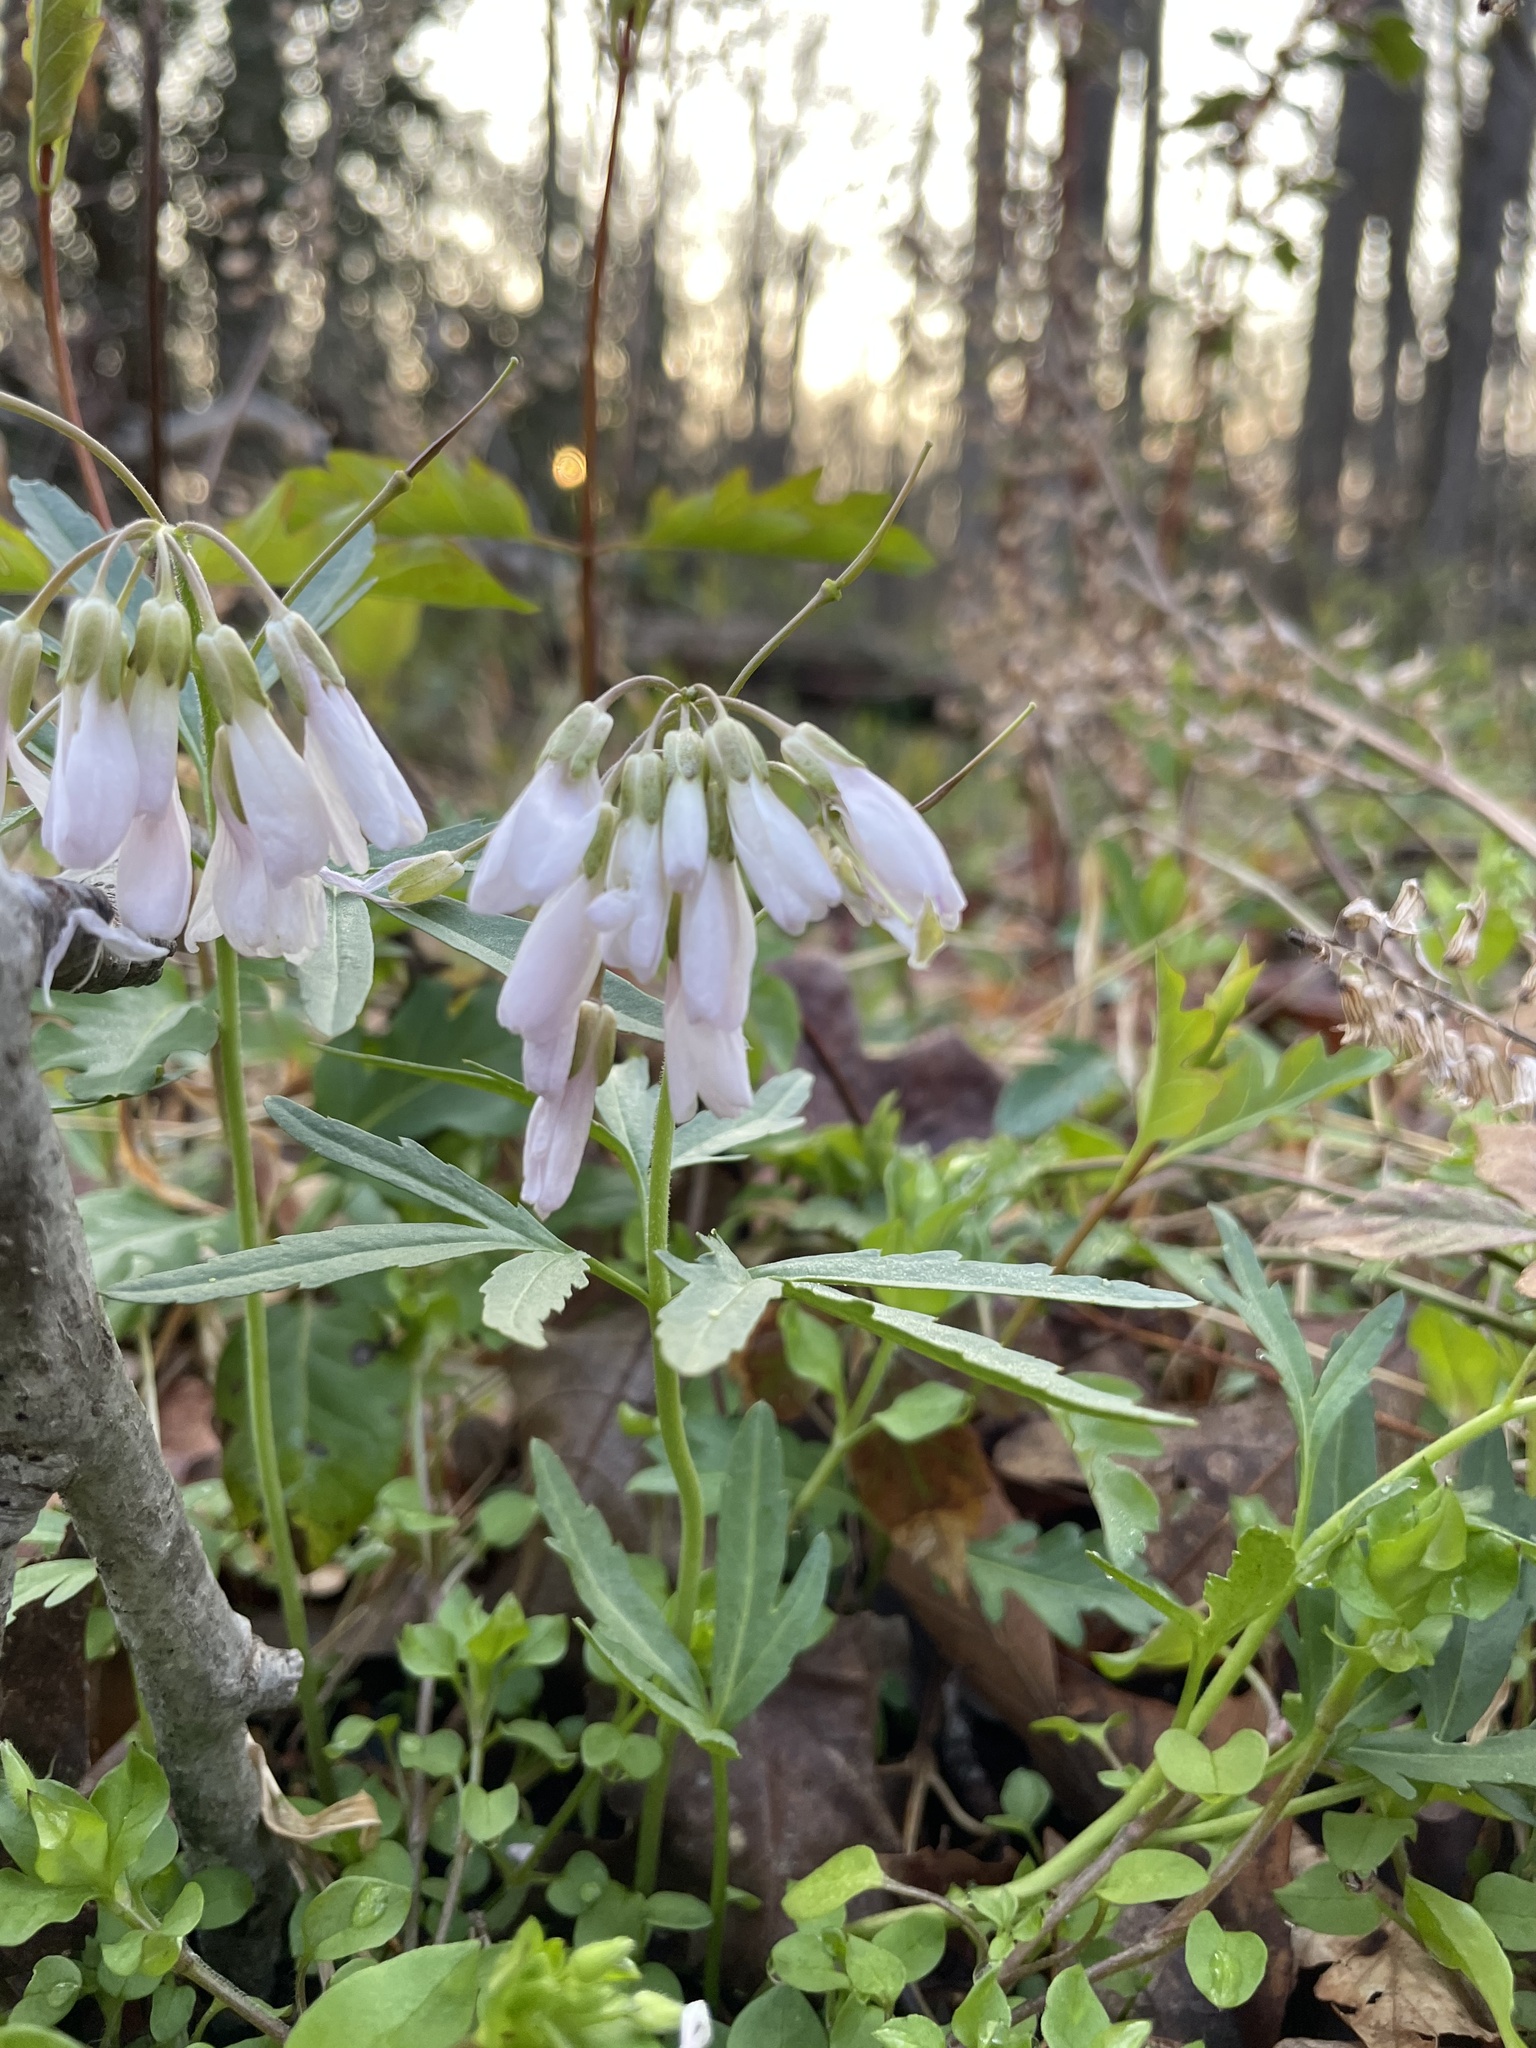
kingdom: Plantae
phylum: Tracheophyta
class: Magnoliopsida
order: Brassicales
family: Brassicaceae
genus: Cardamine
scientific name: Cardamine concatenata
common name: Cut-leaf toothcup
